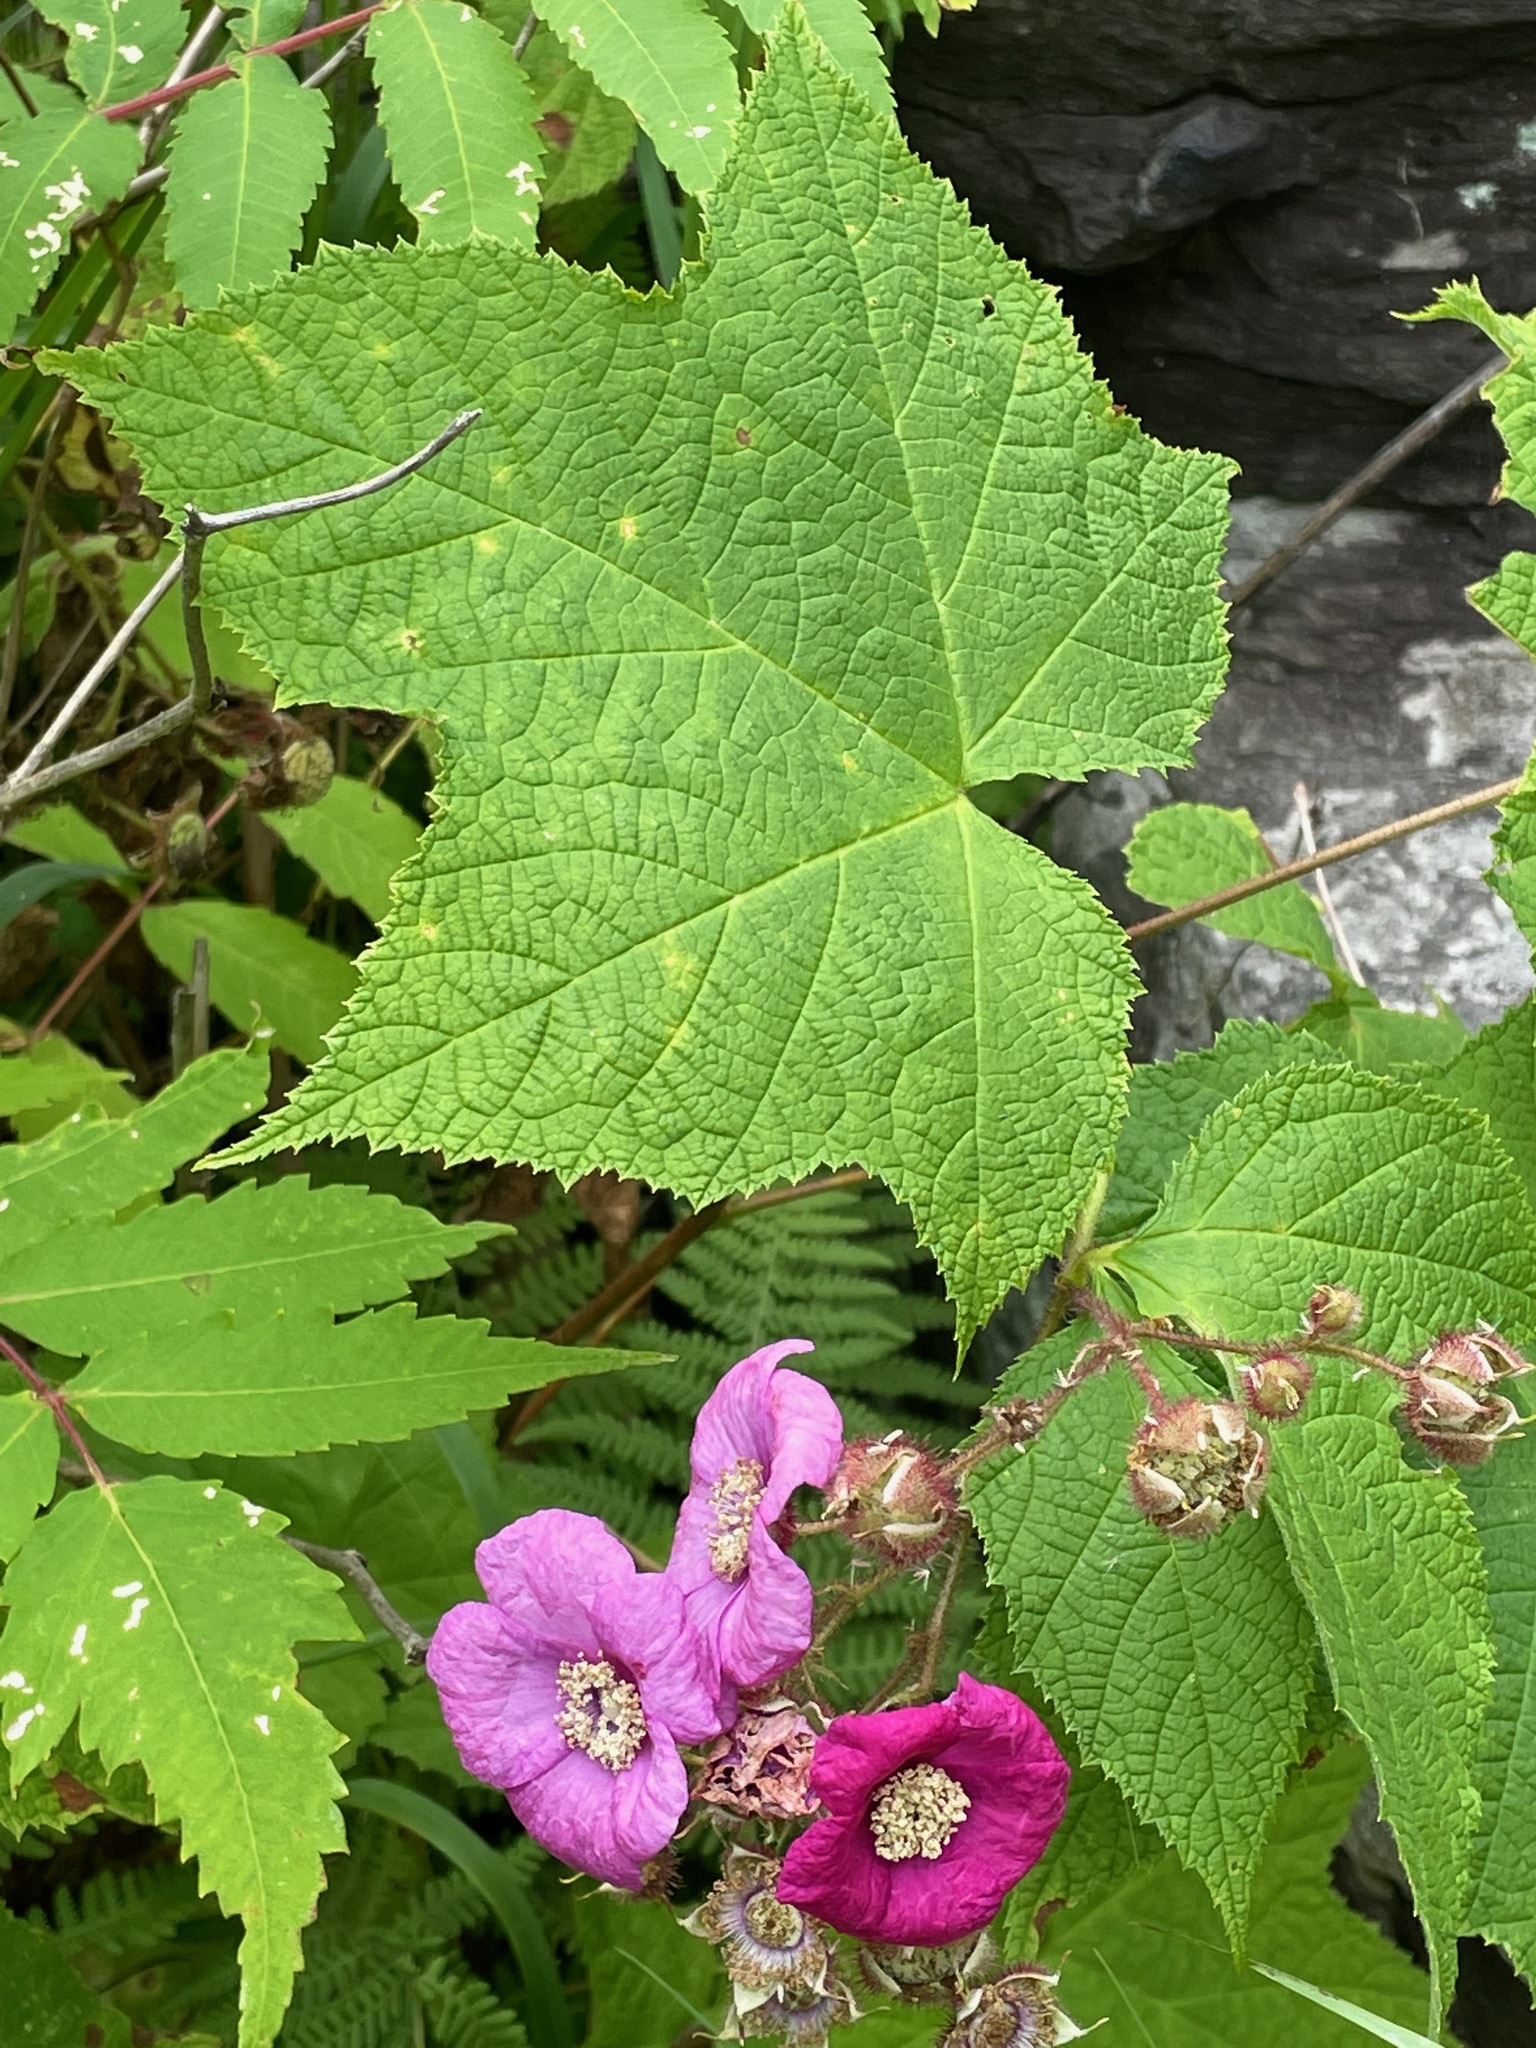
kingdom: Plantae
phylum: Tracheophyta
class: Magnoliopsida
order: Rosales
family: Rosaceae
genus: Rubus
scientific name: Rubus odoratus
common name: Purple-flowered raspberry
